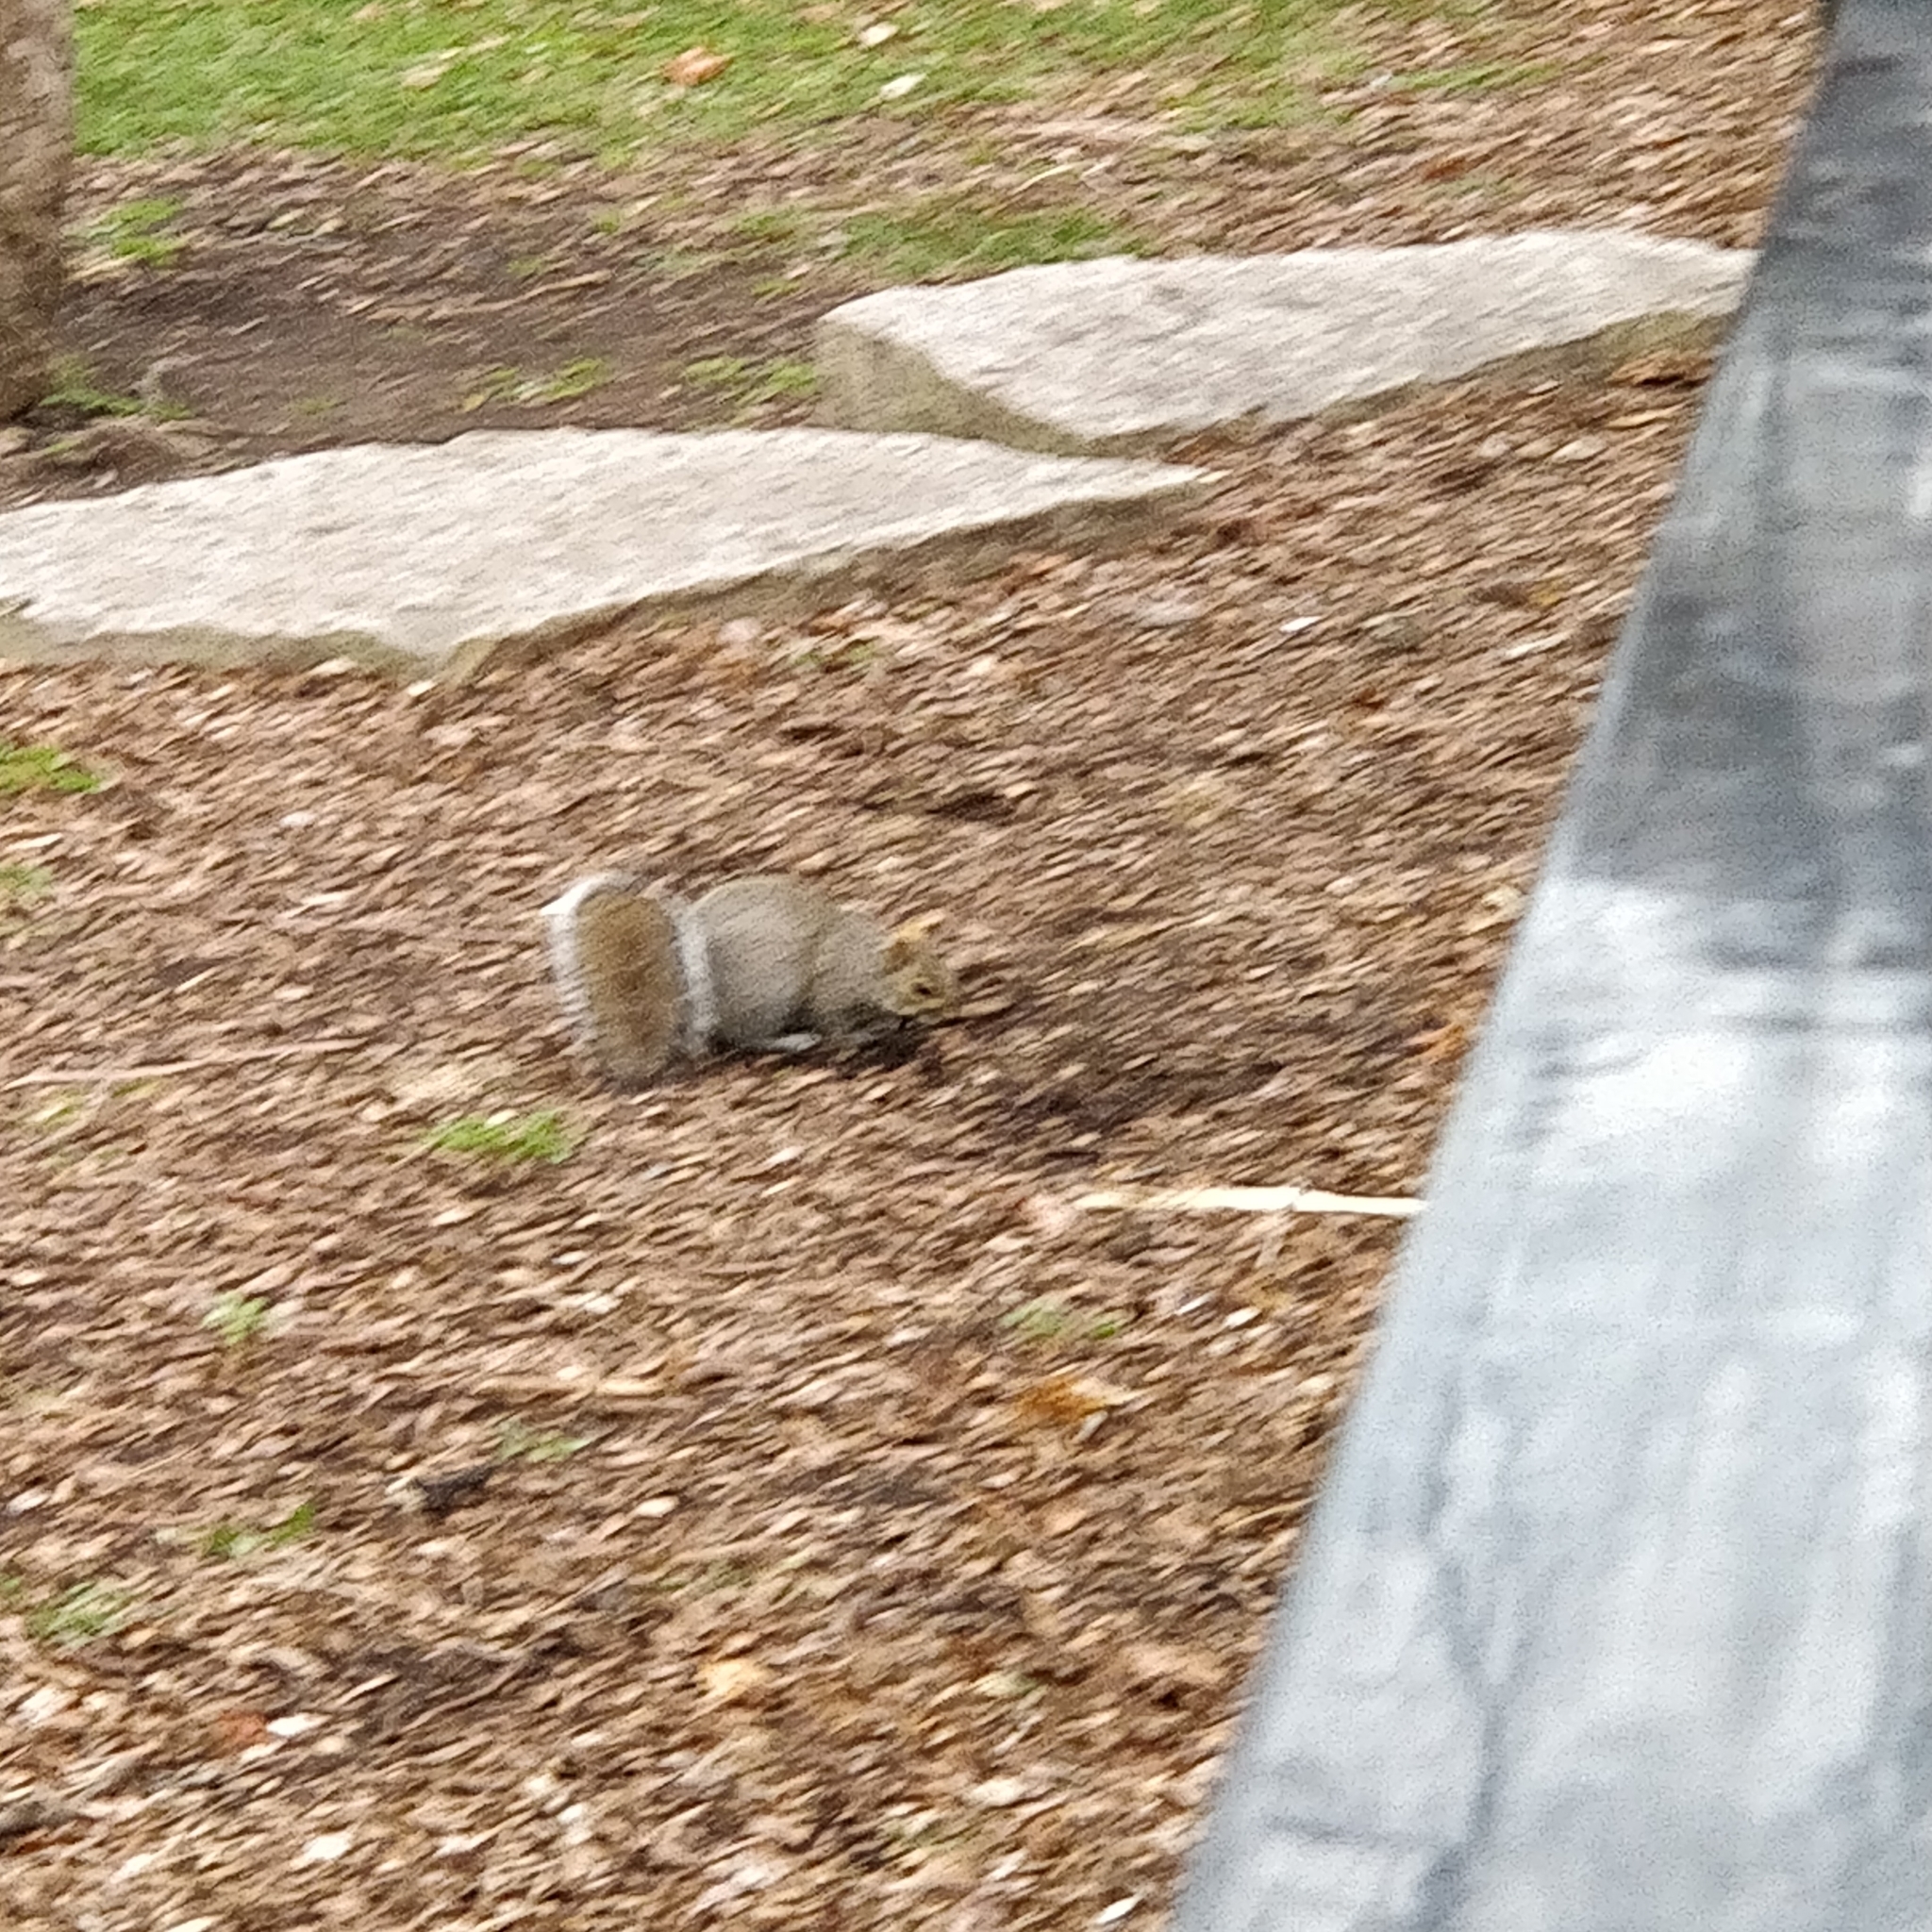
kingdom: Animalia
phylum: Chordata
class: Mammalia
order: Rodentia
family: Sciuridae
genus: Sciurus
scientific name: Sciurus carolinensis
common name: Eastern gray squirrel
